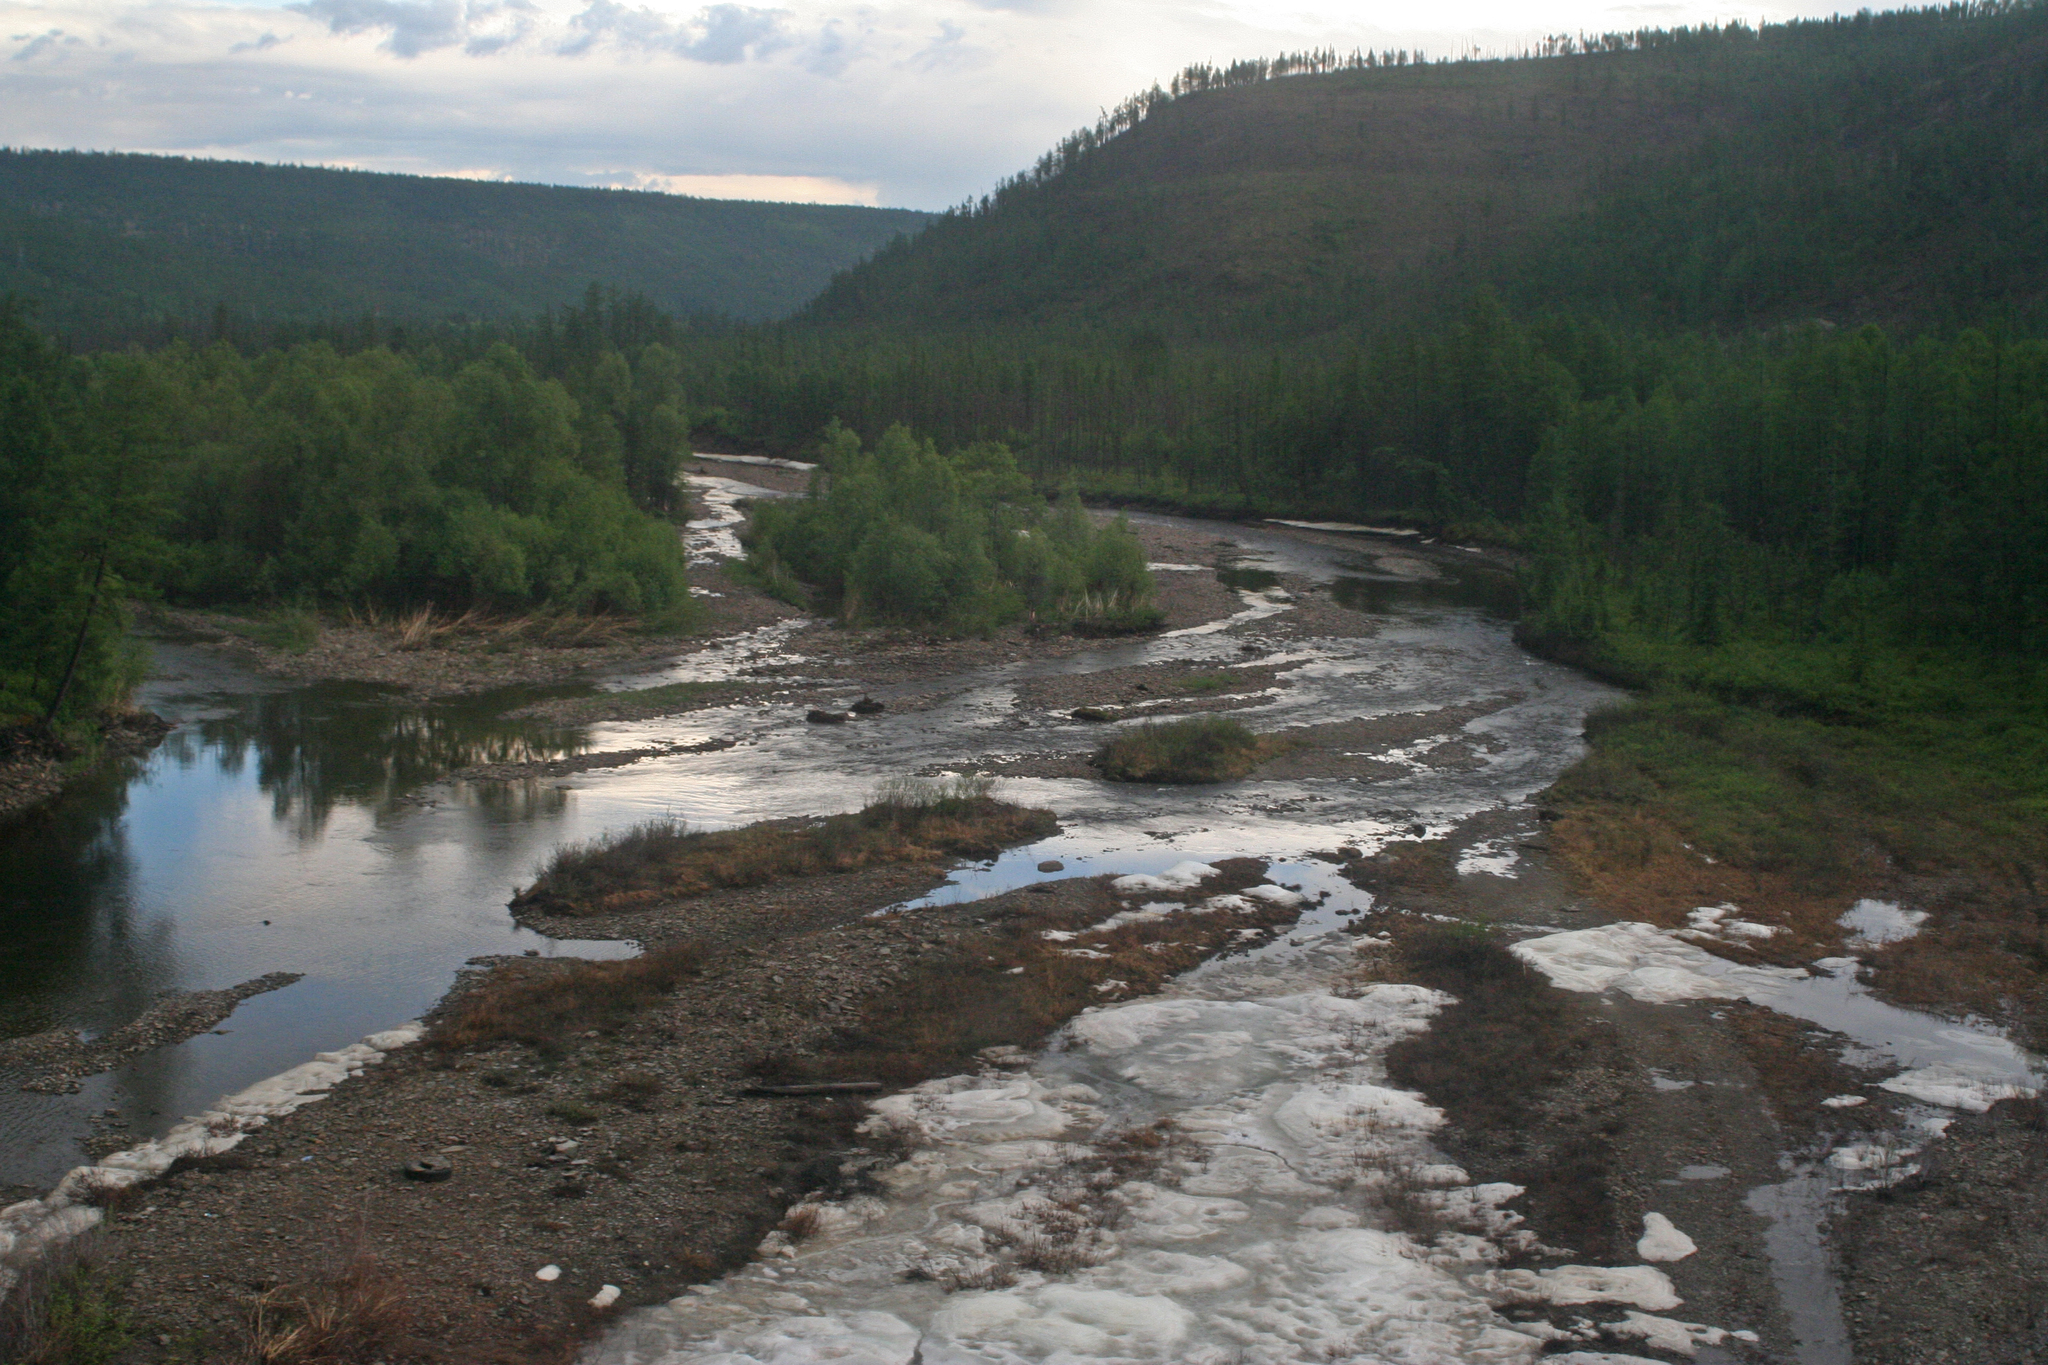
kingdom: Plantae
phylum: Tracheophyta
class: Pinopsida
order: Pinales
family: Pinaceae
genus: Larix
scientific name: Larix gmelinii
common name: Dahurian larch
